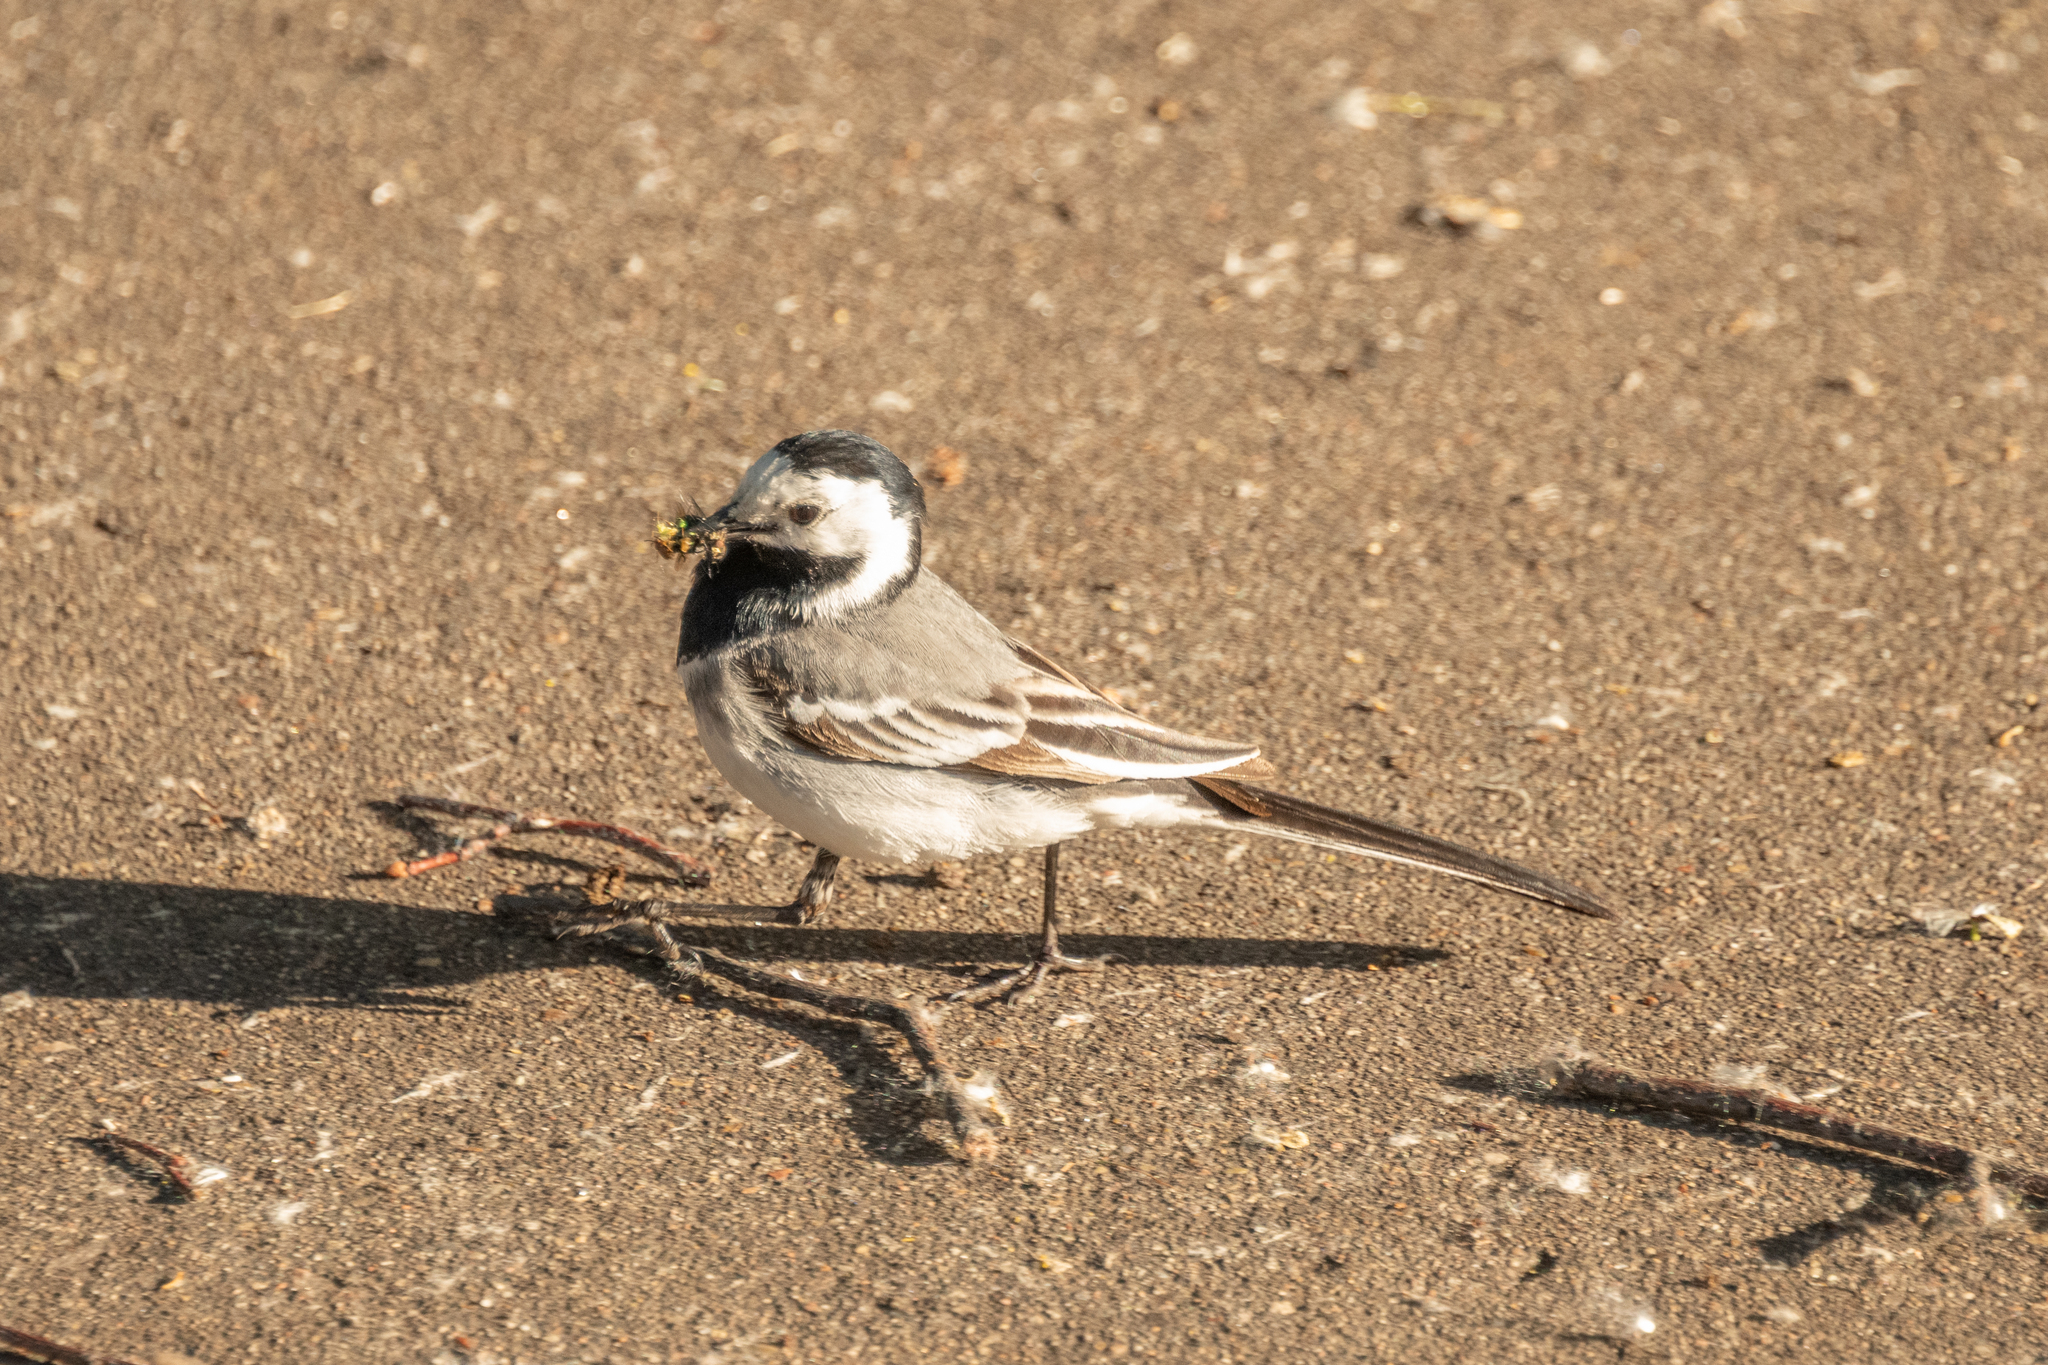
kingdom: Animalia
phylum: Chordata
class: Aves
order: Passeriformes
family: Motacillidae
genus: Motacilla
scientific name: Motacilla alba
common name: White wagtail
